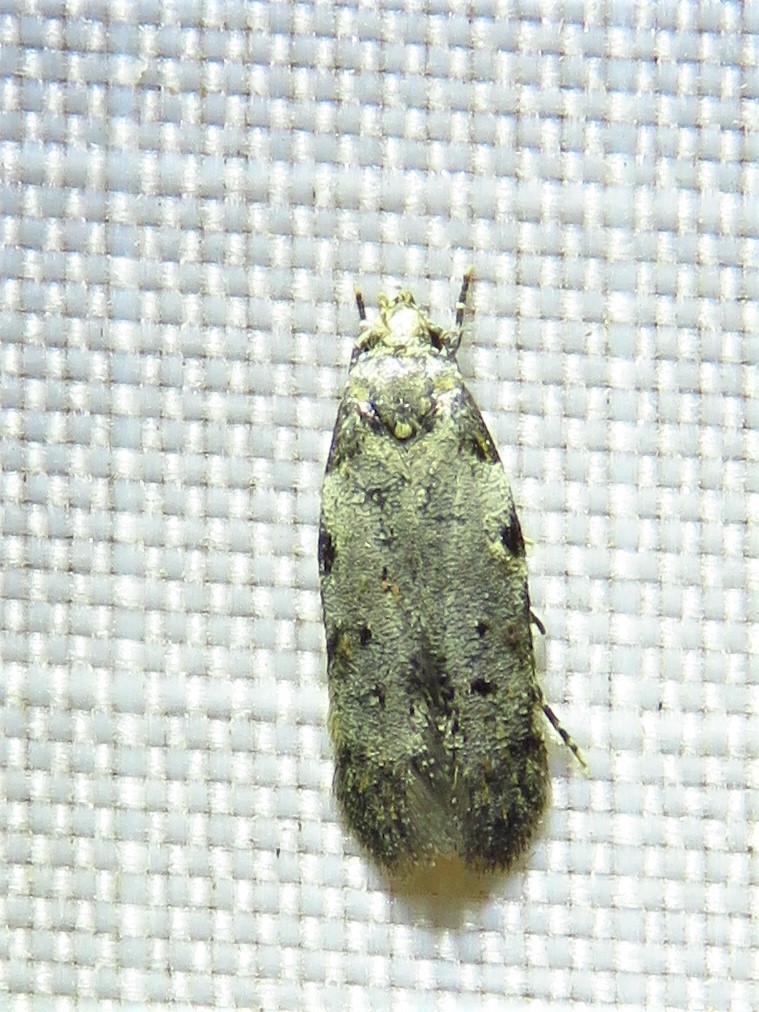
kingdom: Animalia
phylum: Arthropoda
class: Insecta
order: Lepidoptera
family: Autostichidae
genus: Taygete
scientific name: Taygete attributella
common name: Triangle-marked twirler moth
